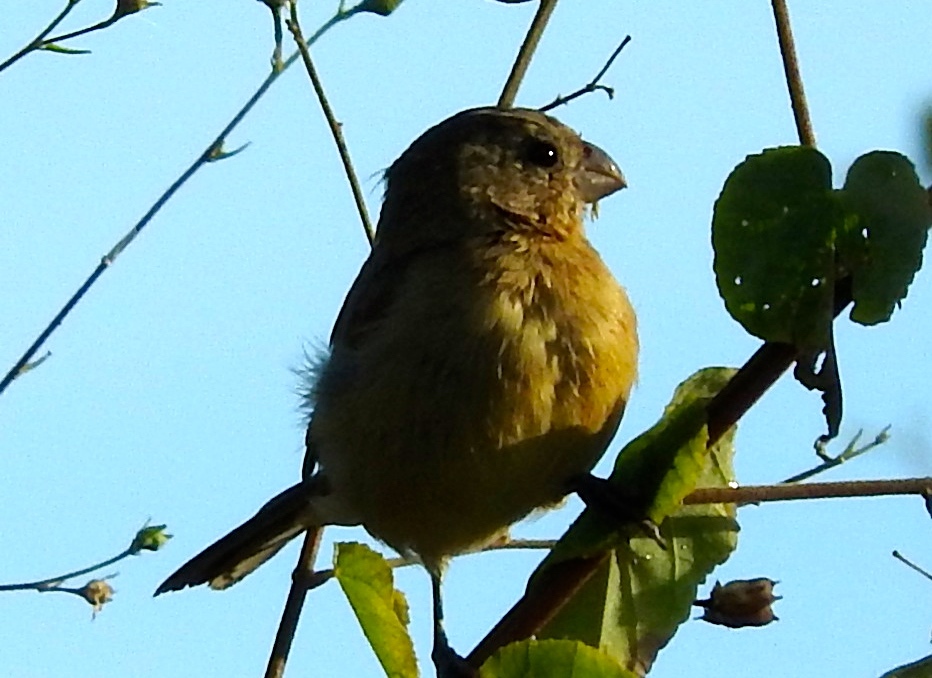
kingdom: Animalia
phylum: Chordata
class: Aves
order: Passeriformes
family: Thraupidae
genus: Sporophila
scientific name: Sporophila torqueola
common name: White-collared seedeater
